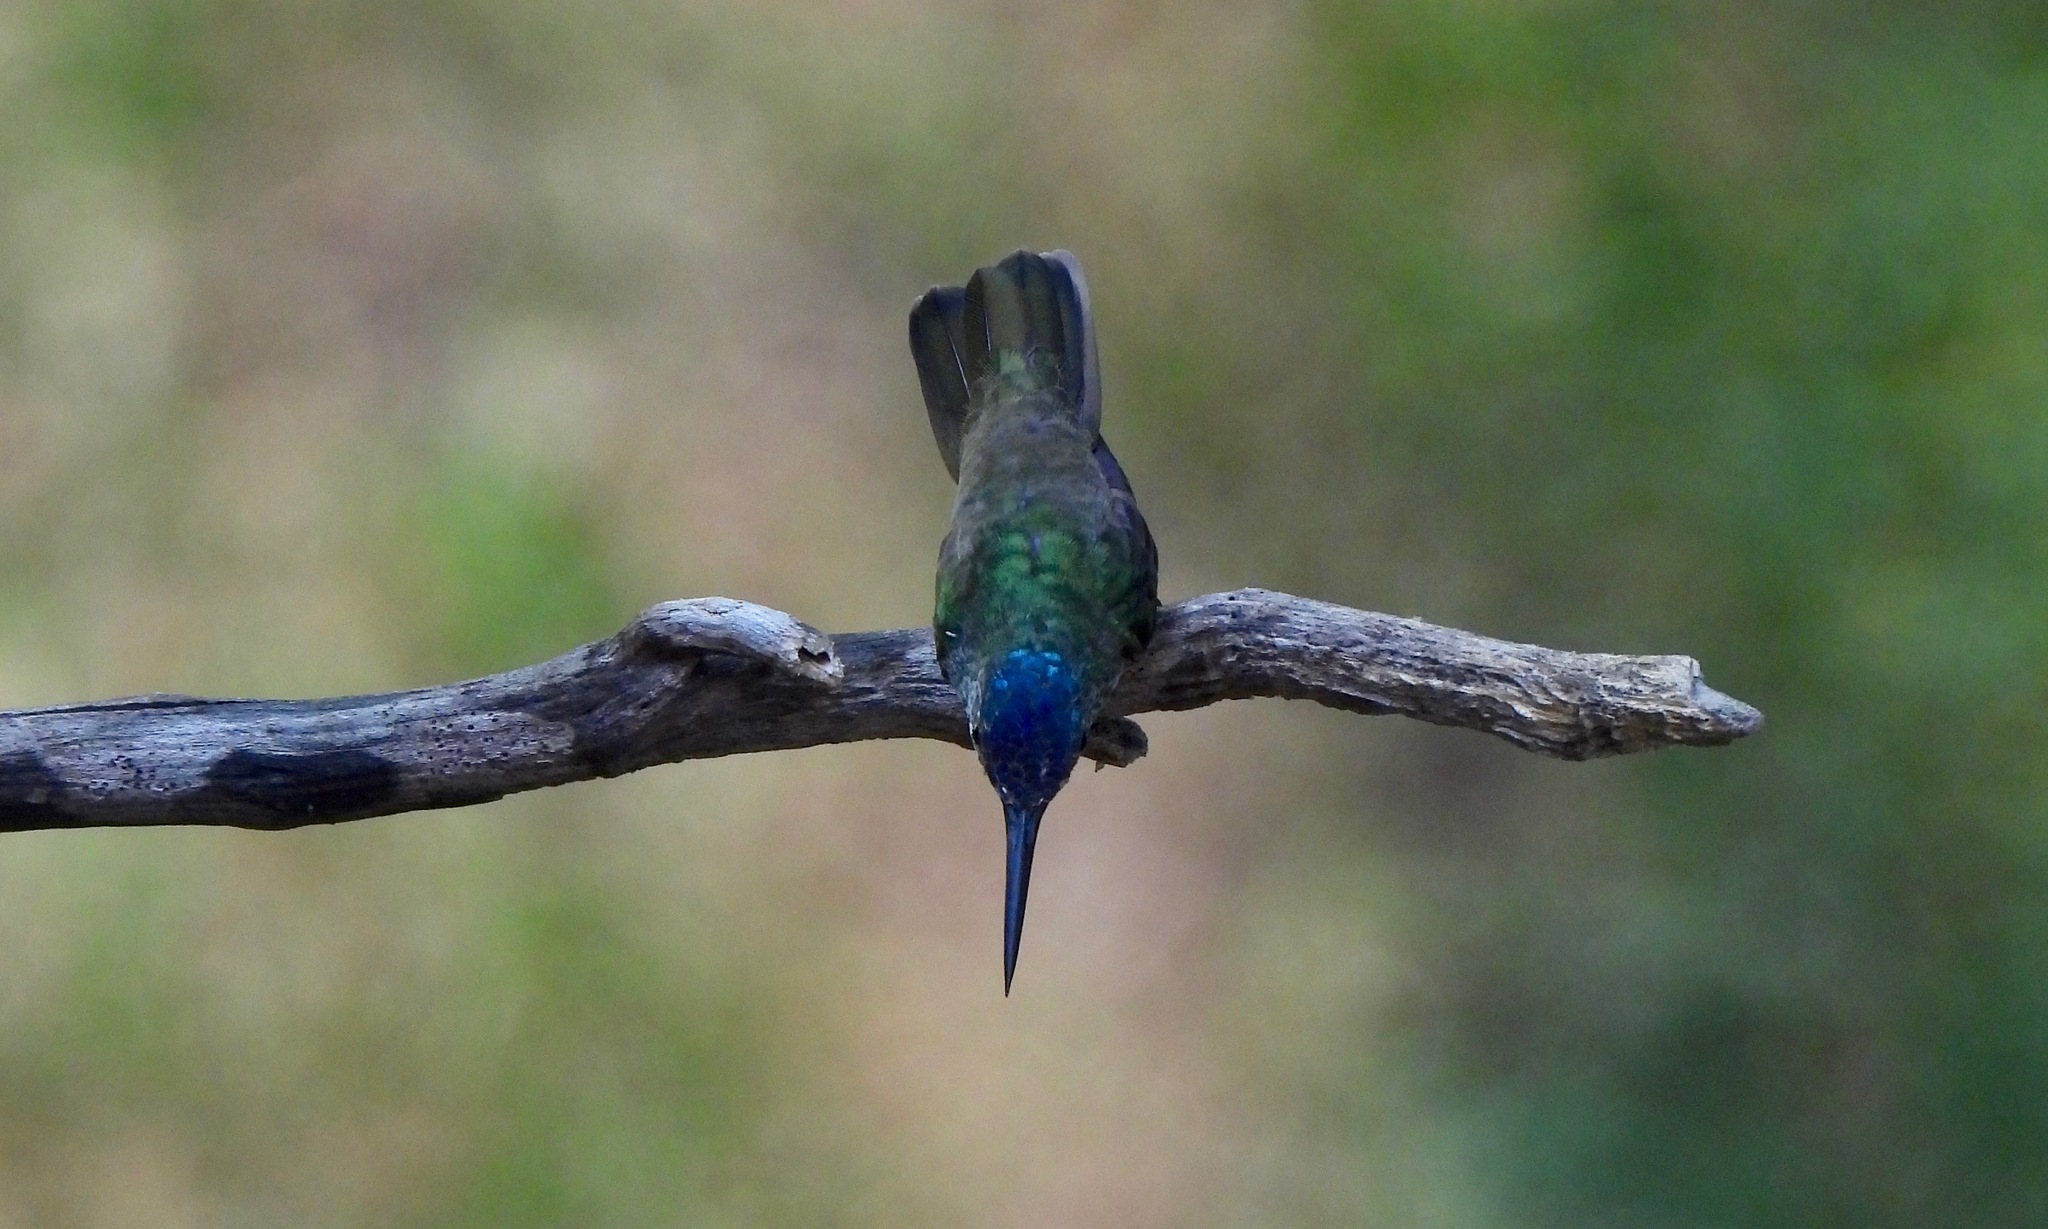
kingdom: Animalia
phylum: Chordata
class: Aves
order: Apodiformes
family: Trochilidae
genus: Saucerottia
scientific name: Saucerottia cyanocephala
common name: Azure-crowned hummingbird
